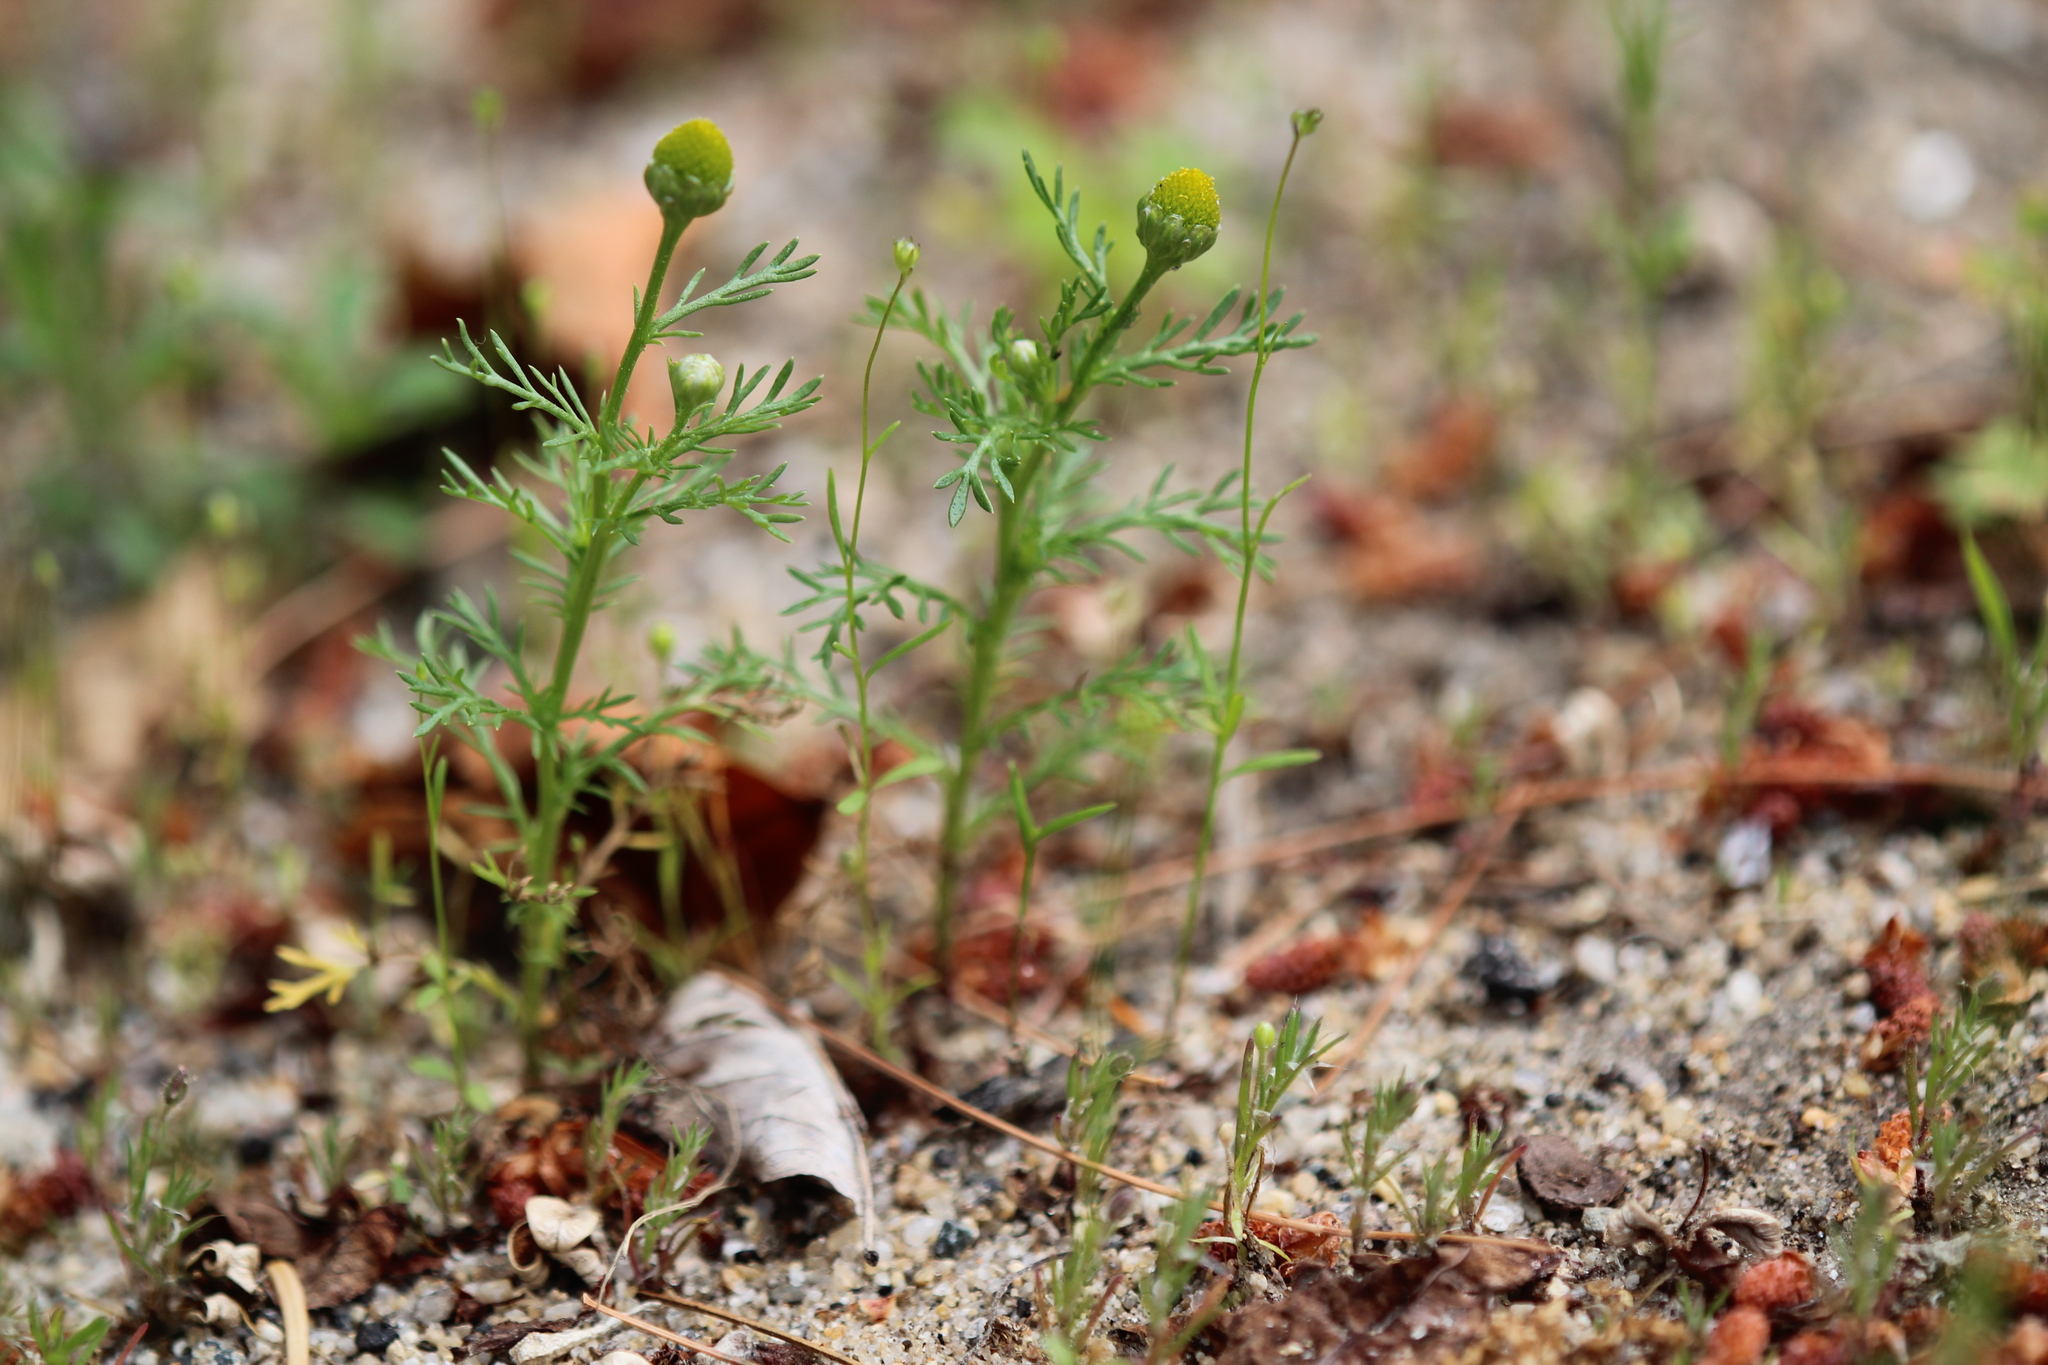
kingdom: Plantae
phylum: Tracheophyta
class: Magnoliopsida
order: Asterales
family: Asteraceae
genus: Matricaria
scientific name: Matricaria discoidea
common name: Disc mayweed
